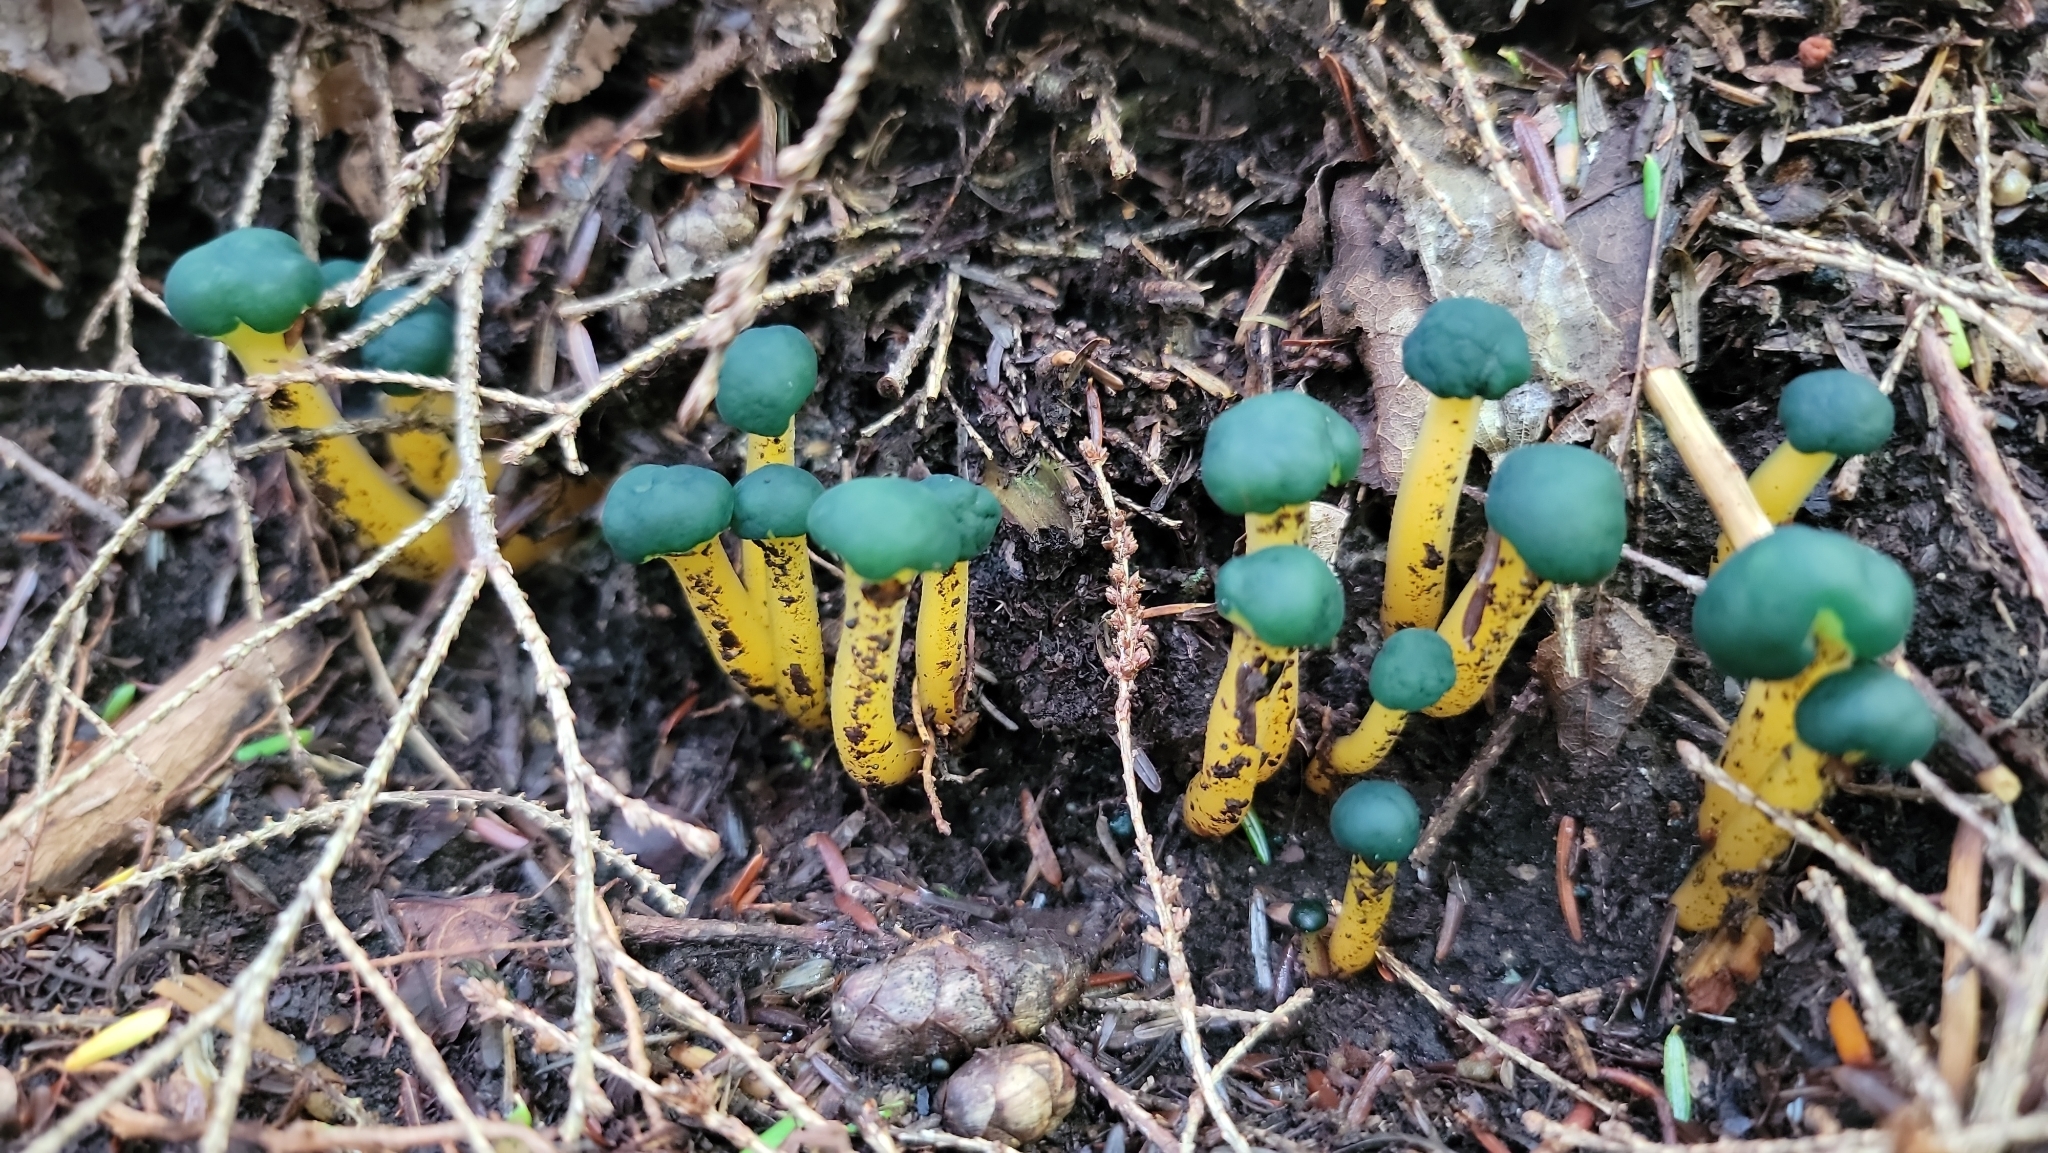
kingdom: Fungi
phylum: Ascomycota
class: Leotiomycetes
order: Leotiales
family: Leotiaceae
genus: Leotia
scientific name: Leotia lubrica
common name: Jellybaby
